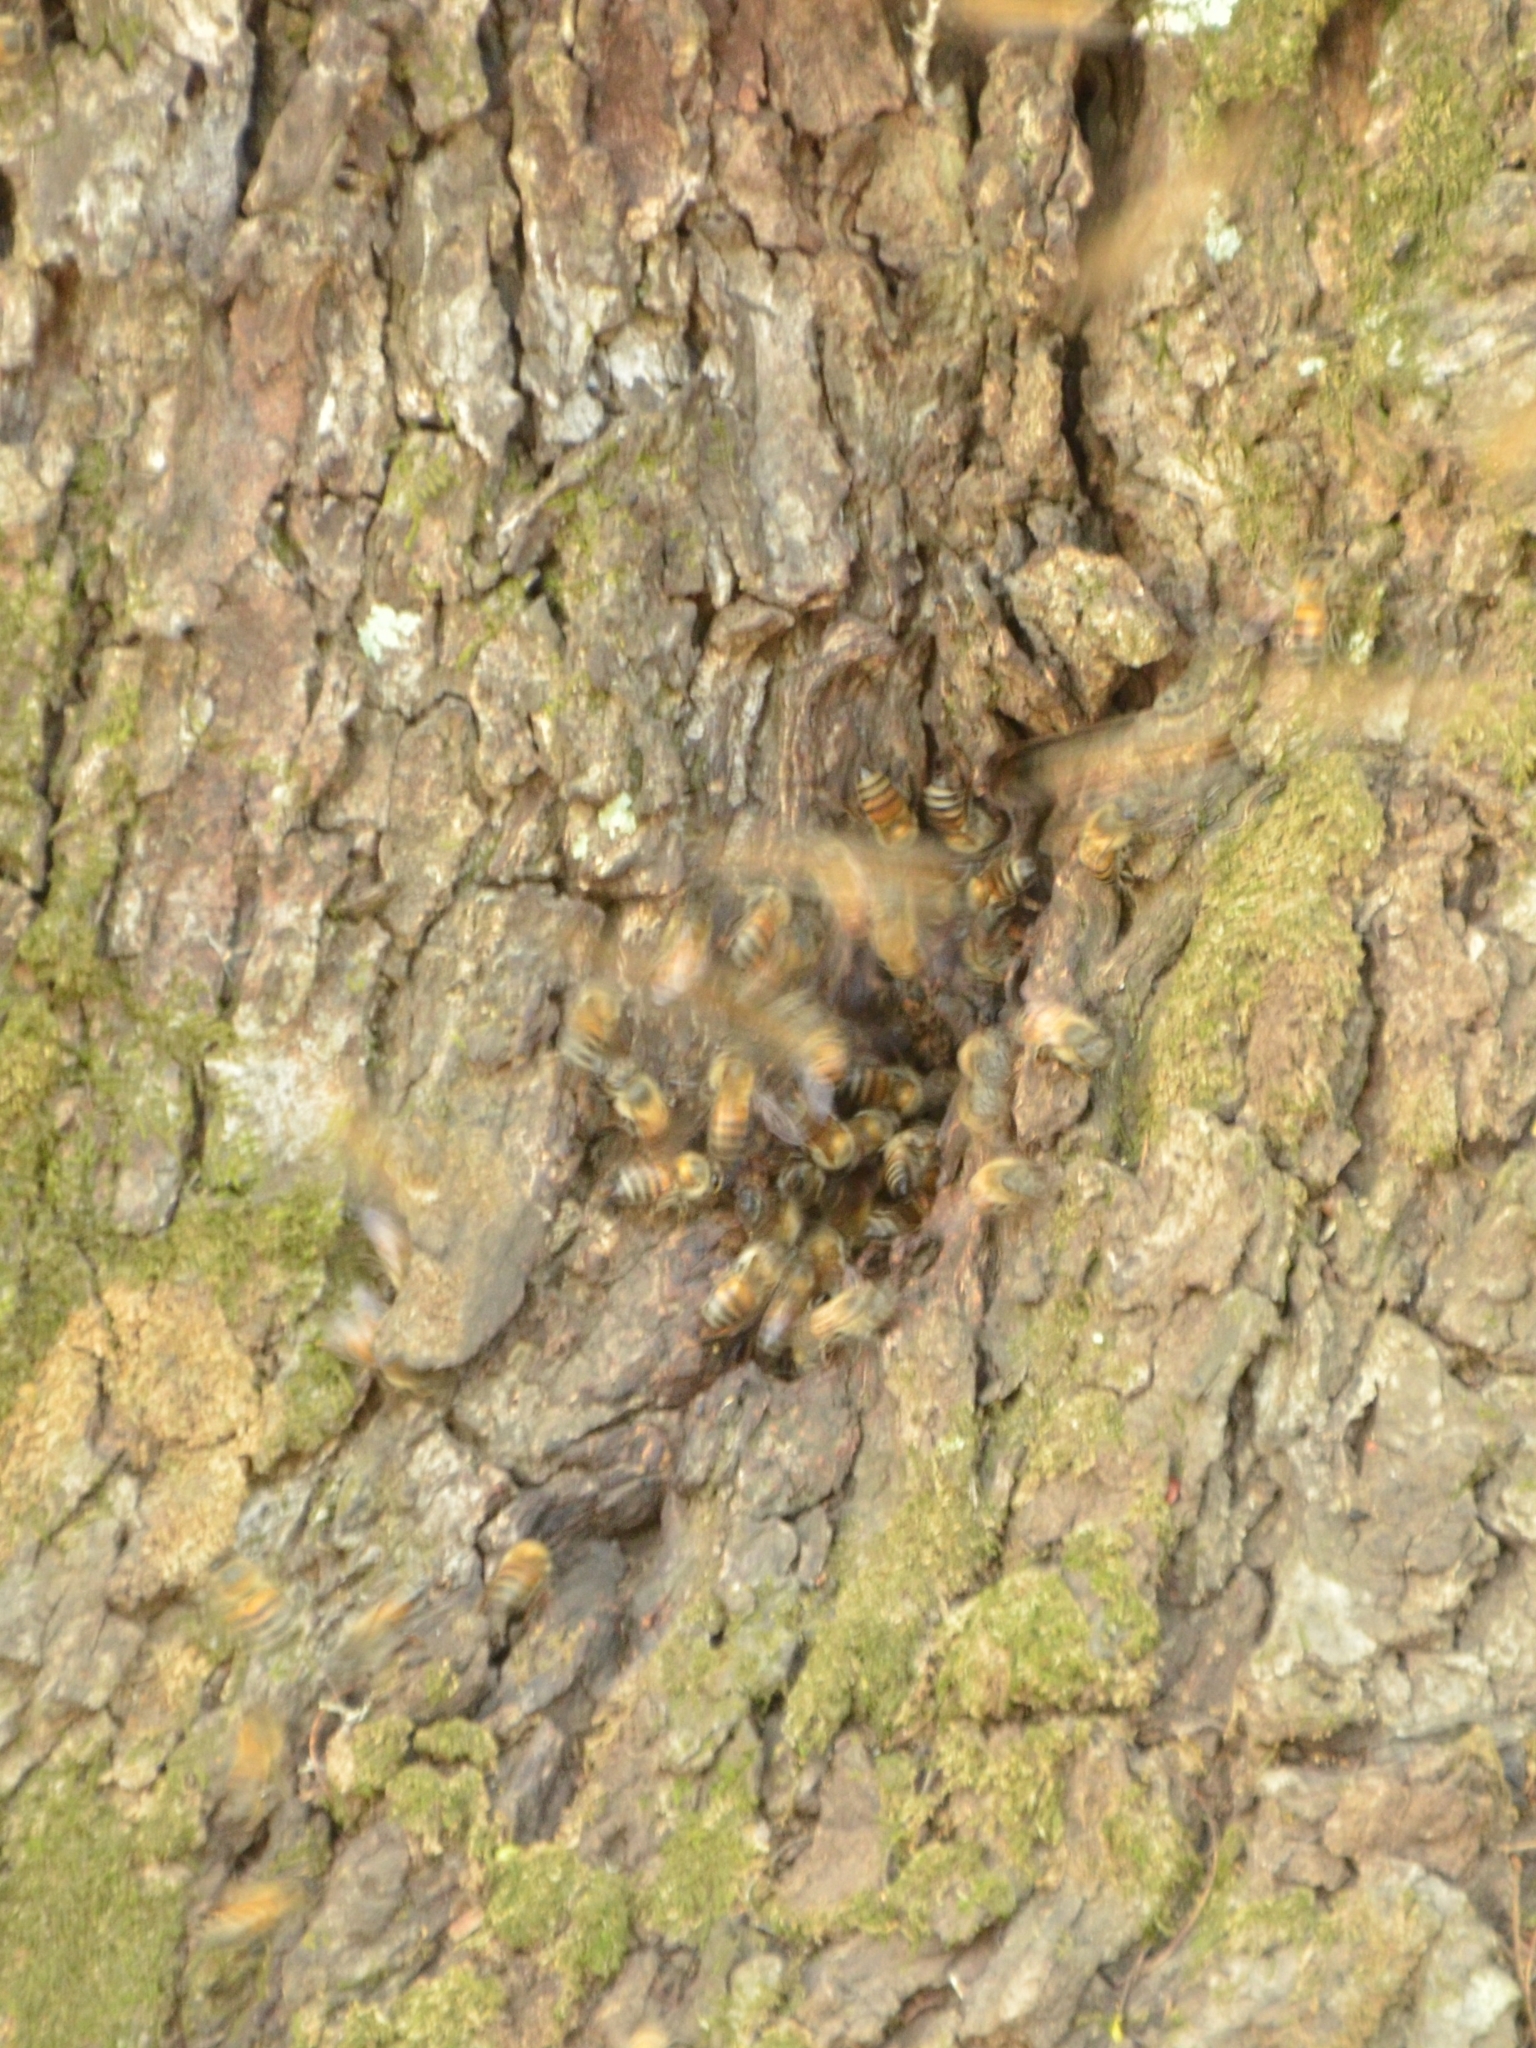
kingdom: Animalia
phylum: Arthropoda
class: Insecta
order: Hymenoptera
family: Apidae
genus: Apis
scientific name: Apis mellifera
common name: Honey bee
